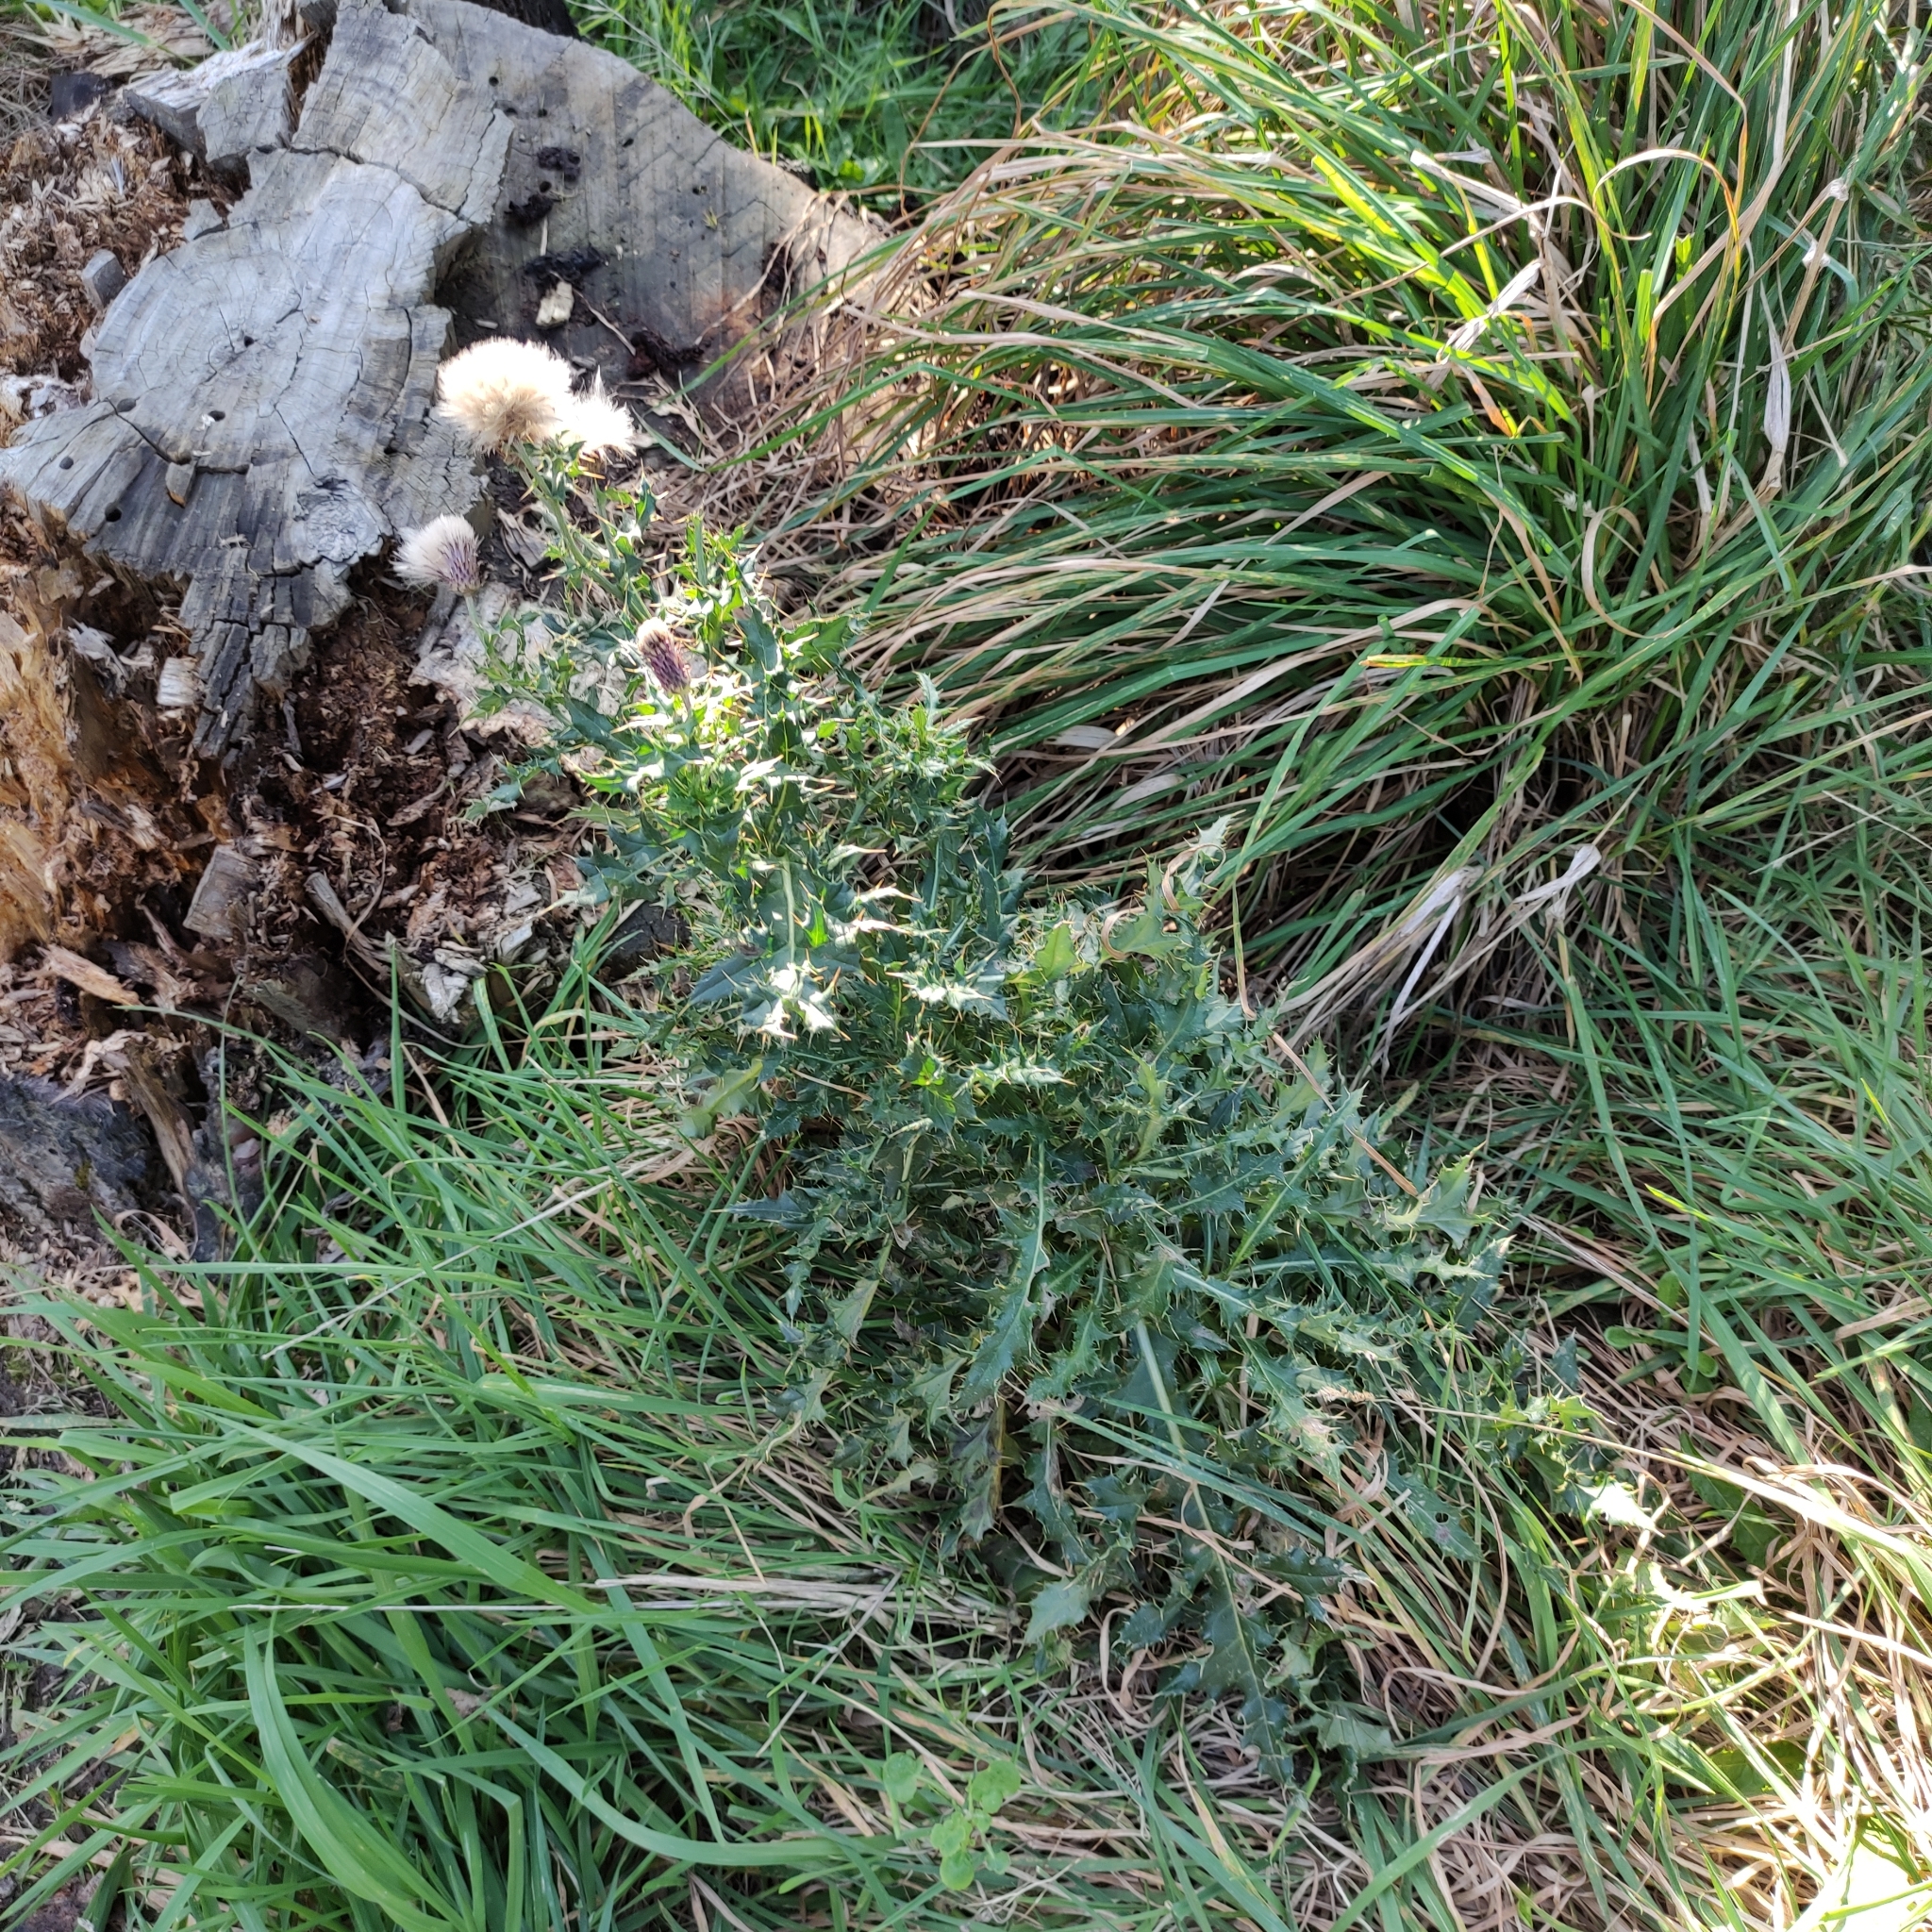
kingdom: Plantae
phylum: Tracheophyta
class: Magnoliopsida
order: Asterales
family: Asteraceae
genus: Cirsium
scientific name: Cirsium arvense
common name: Creeping thistle
